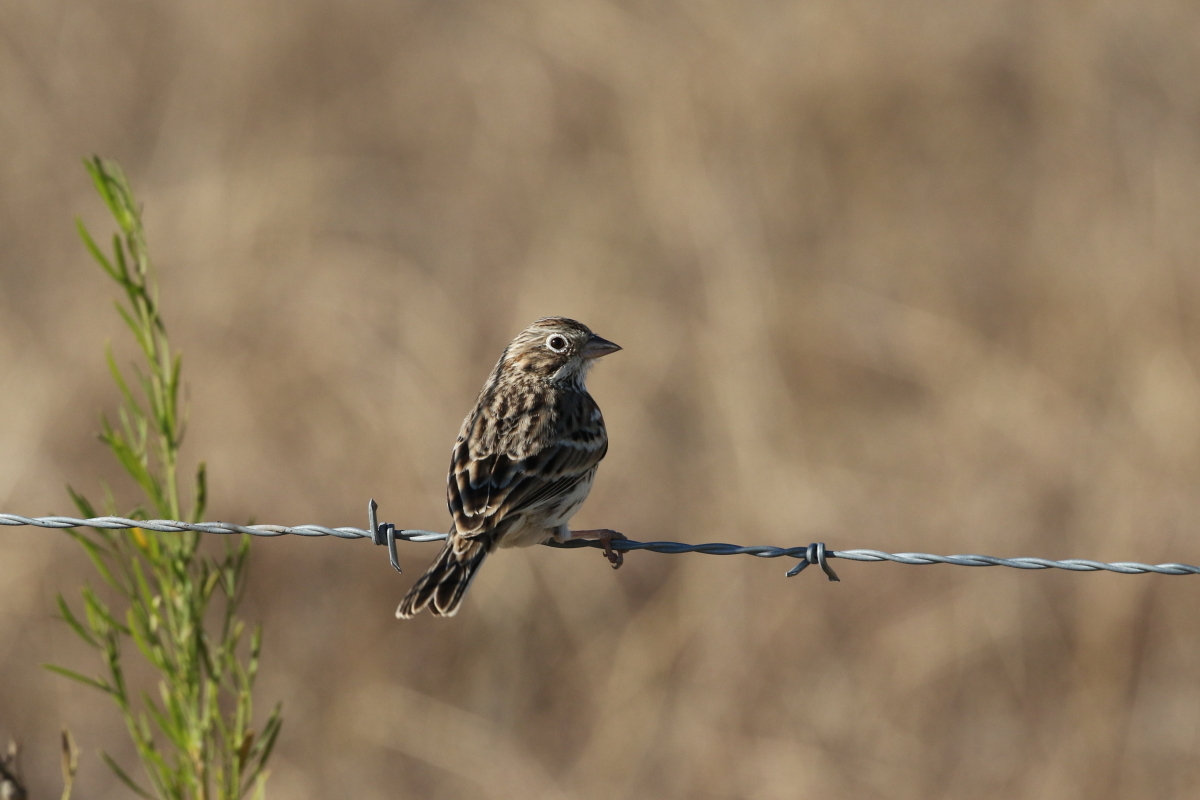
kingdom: Animalia
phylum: Chordata
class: Aves
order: Passeriformes
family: Passerellidae
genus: Pooecetes
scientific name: Pooecetes gramineus
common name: Vesper sparrow
